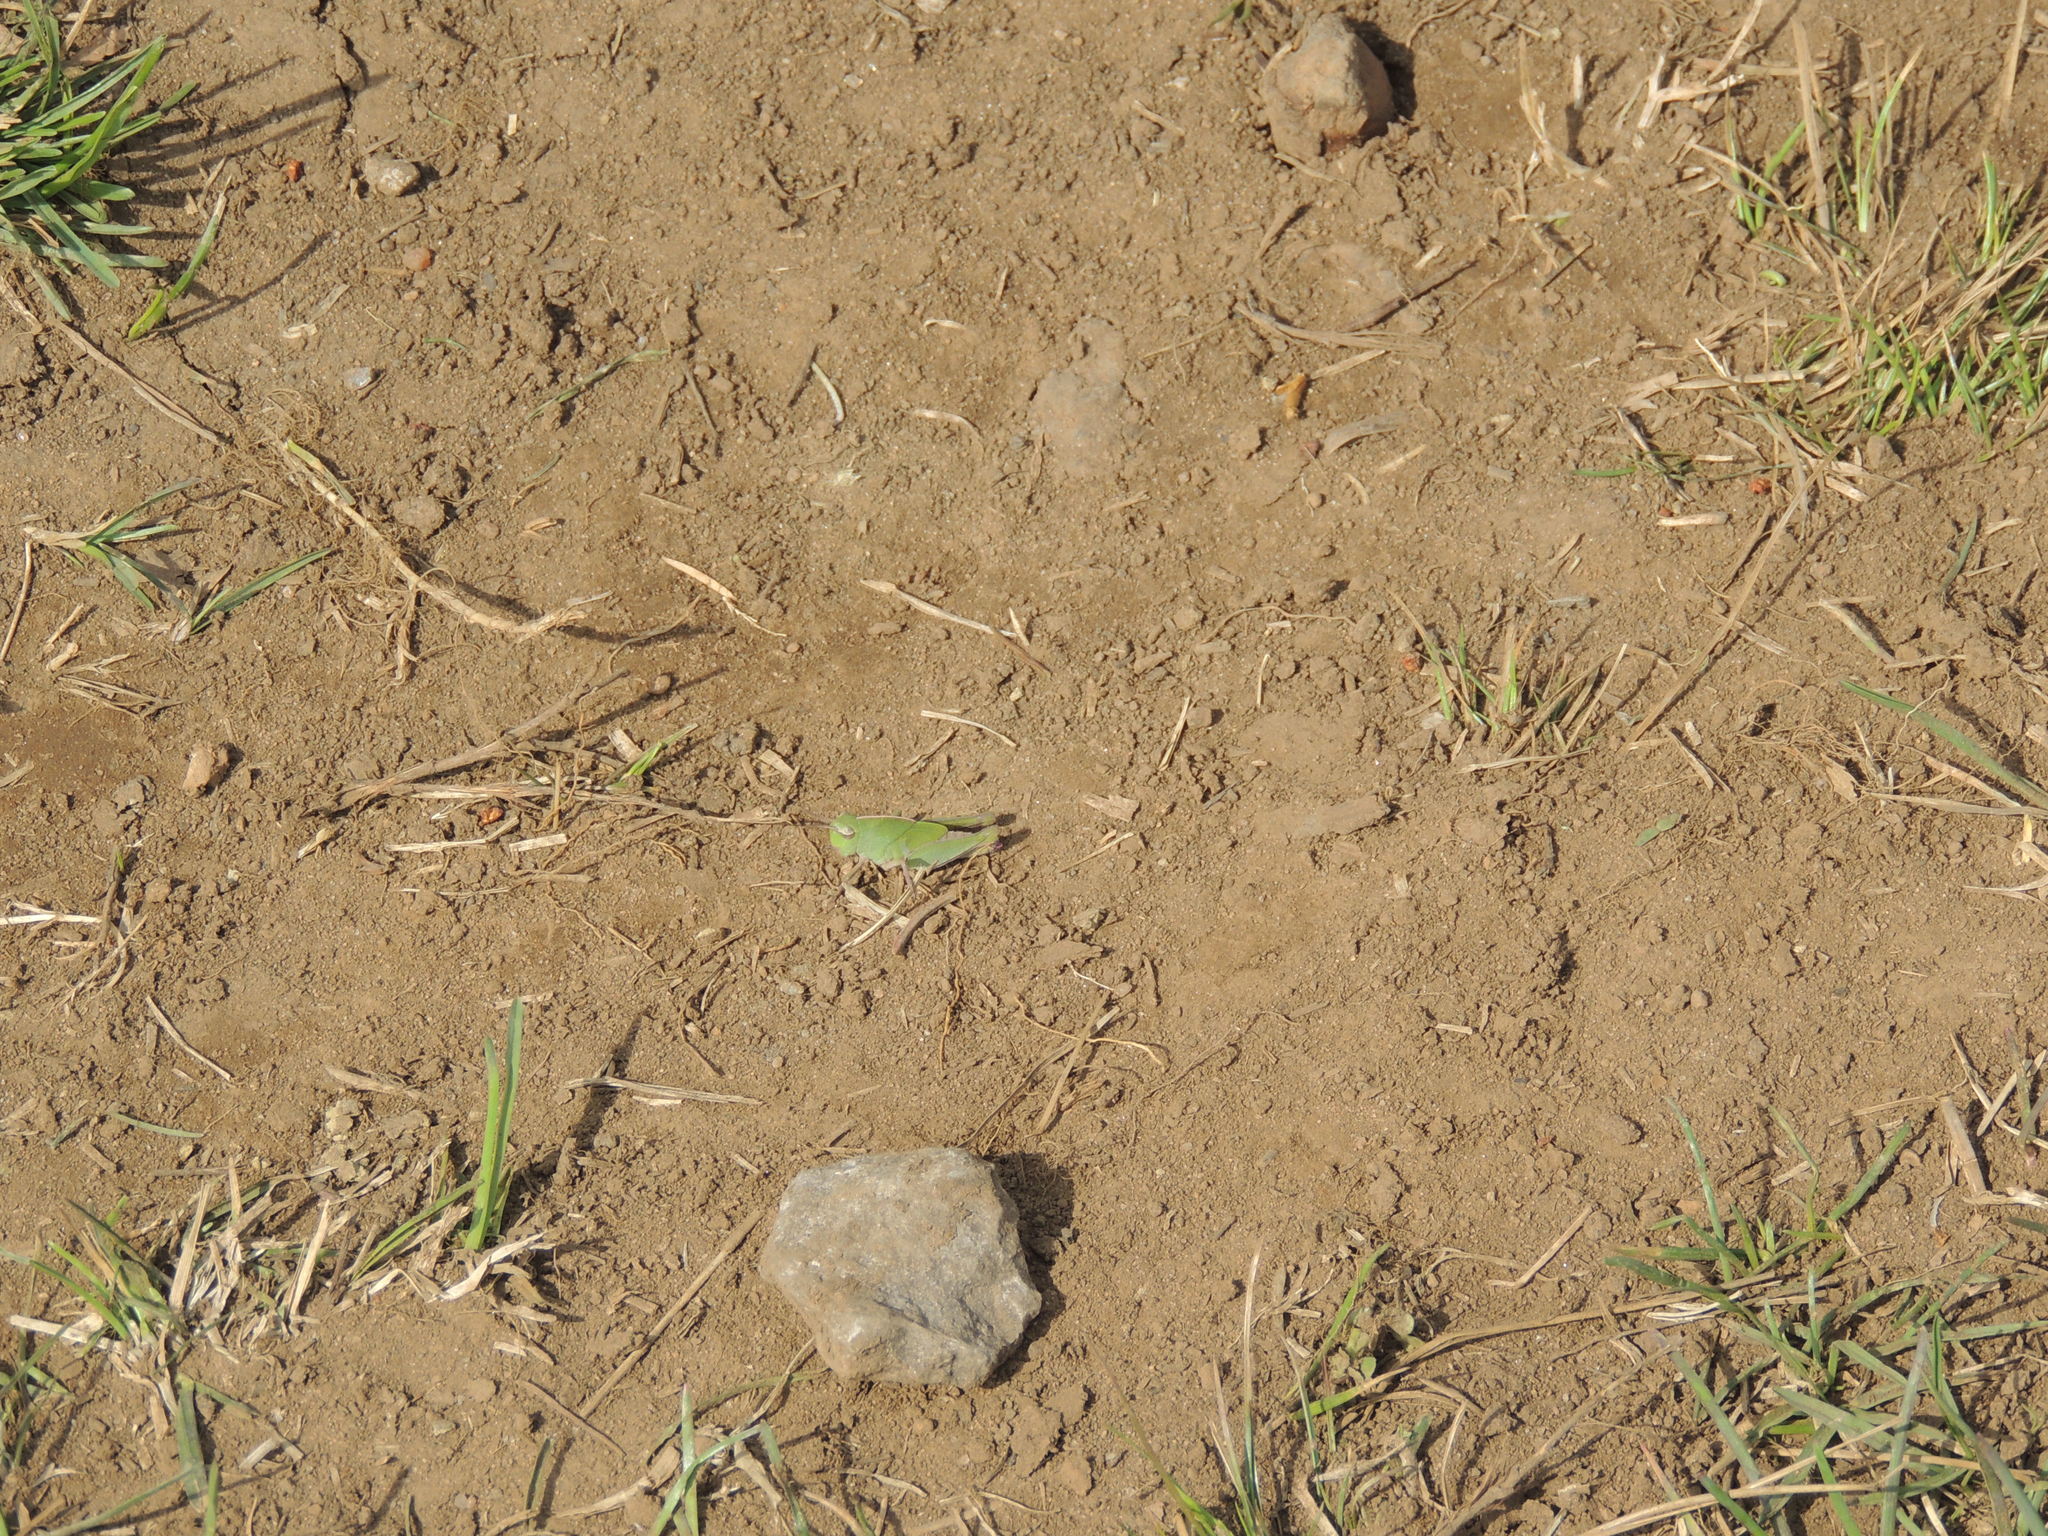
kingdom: Animalia
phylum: Arthropoda
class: Insecta
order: Orthoptera
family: Acrididae
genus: Chortophaga
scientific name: Chortophaga viridifasciata
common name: Green-striped grasshopper
